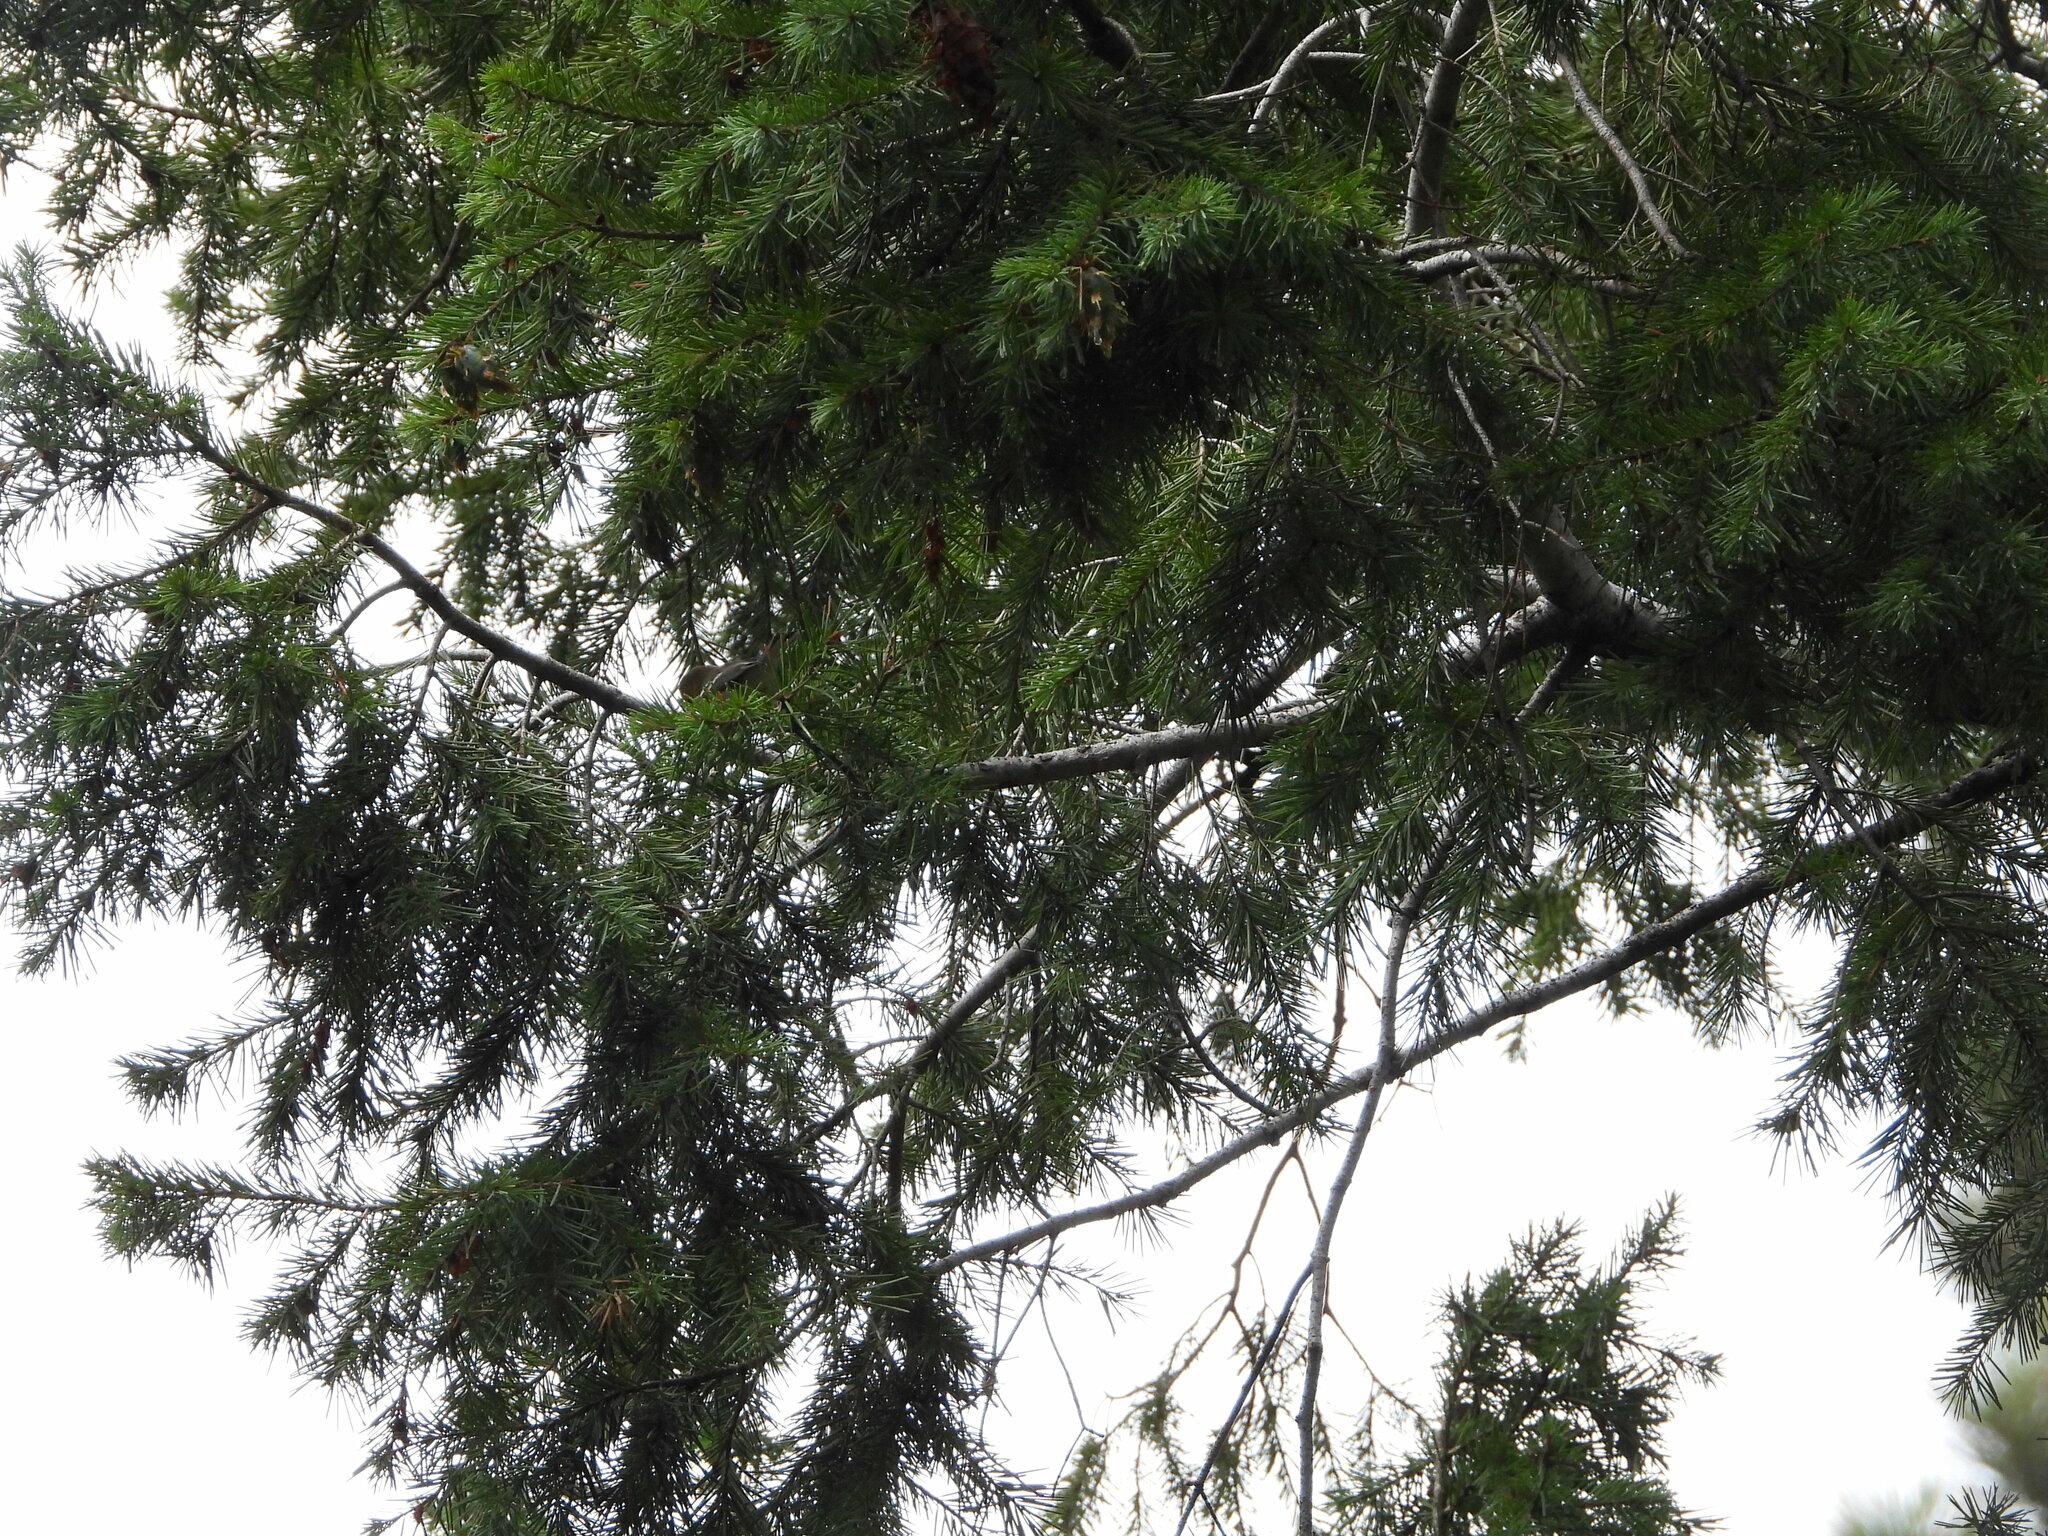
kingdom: Plantae
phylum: Tracheophyta
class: Pinopsida
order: Pinales
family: Pinaceae
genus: Pseudotsuga
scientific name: Pseudotsuga menziesii
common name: Douglas fir
